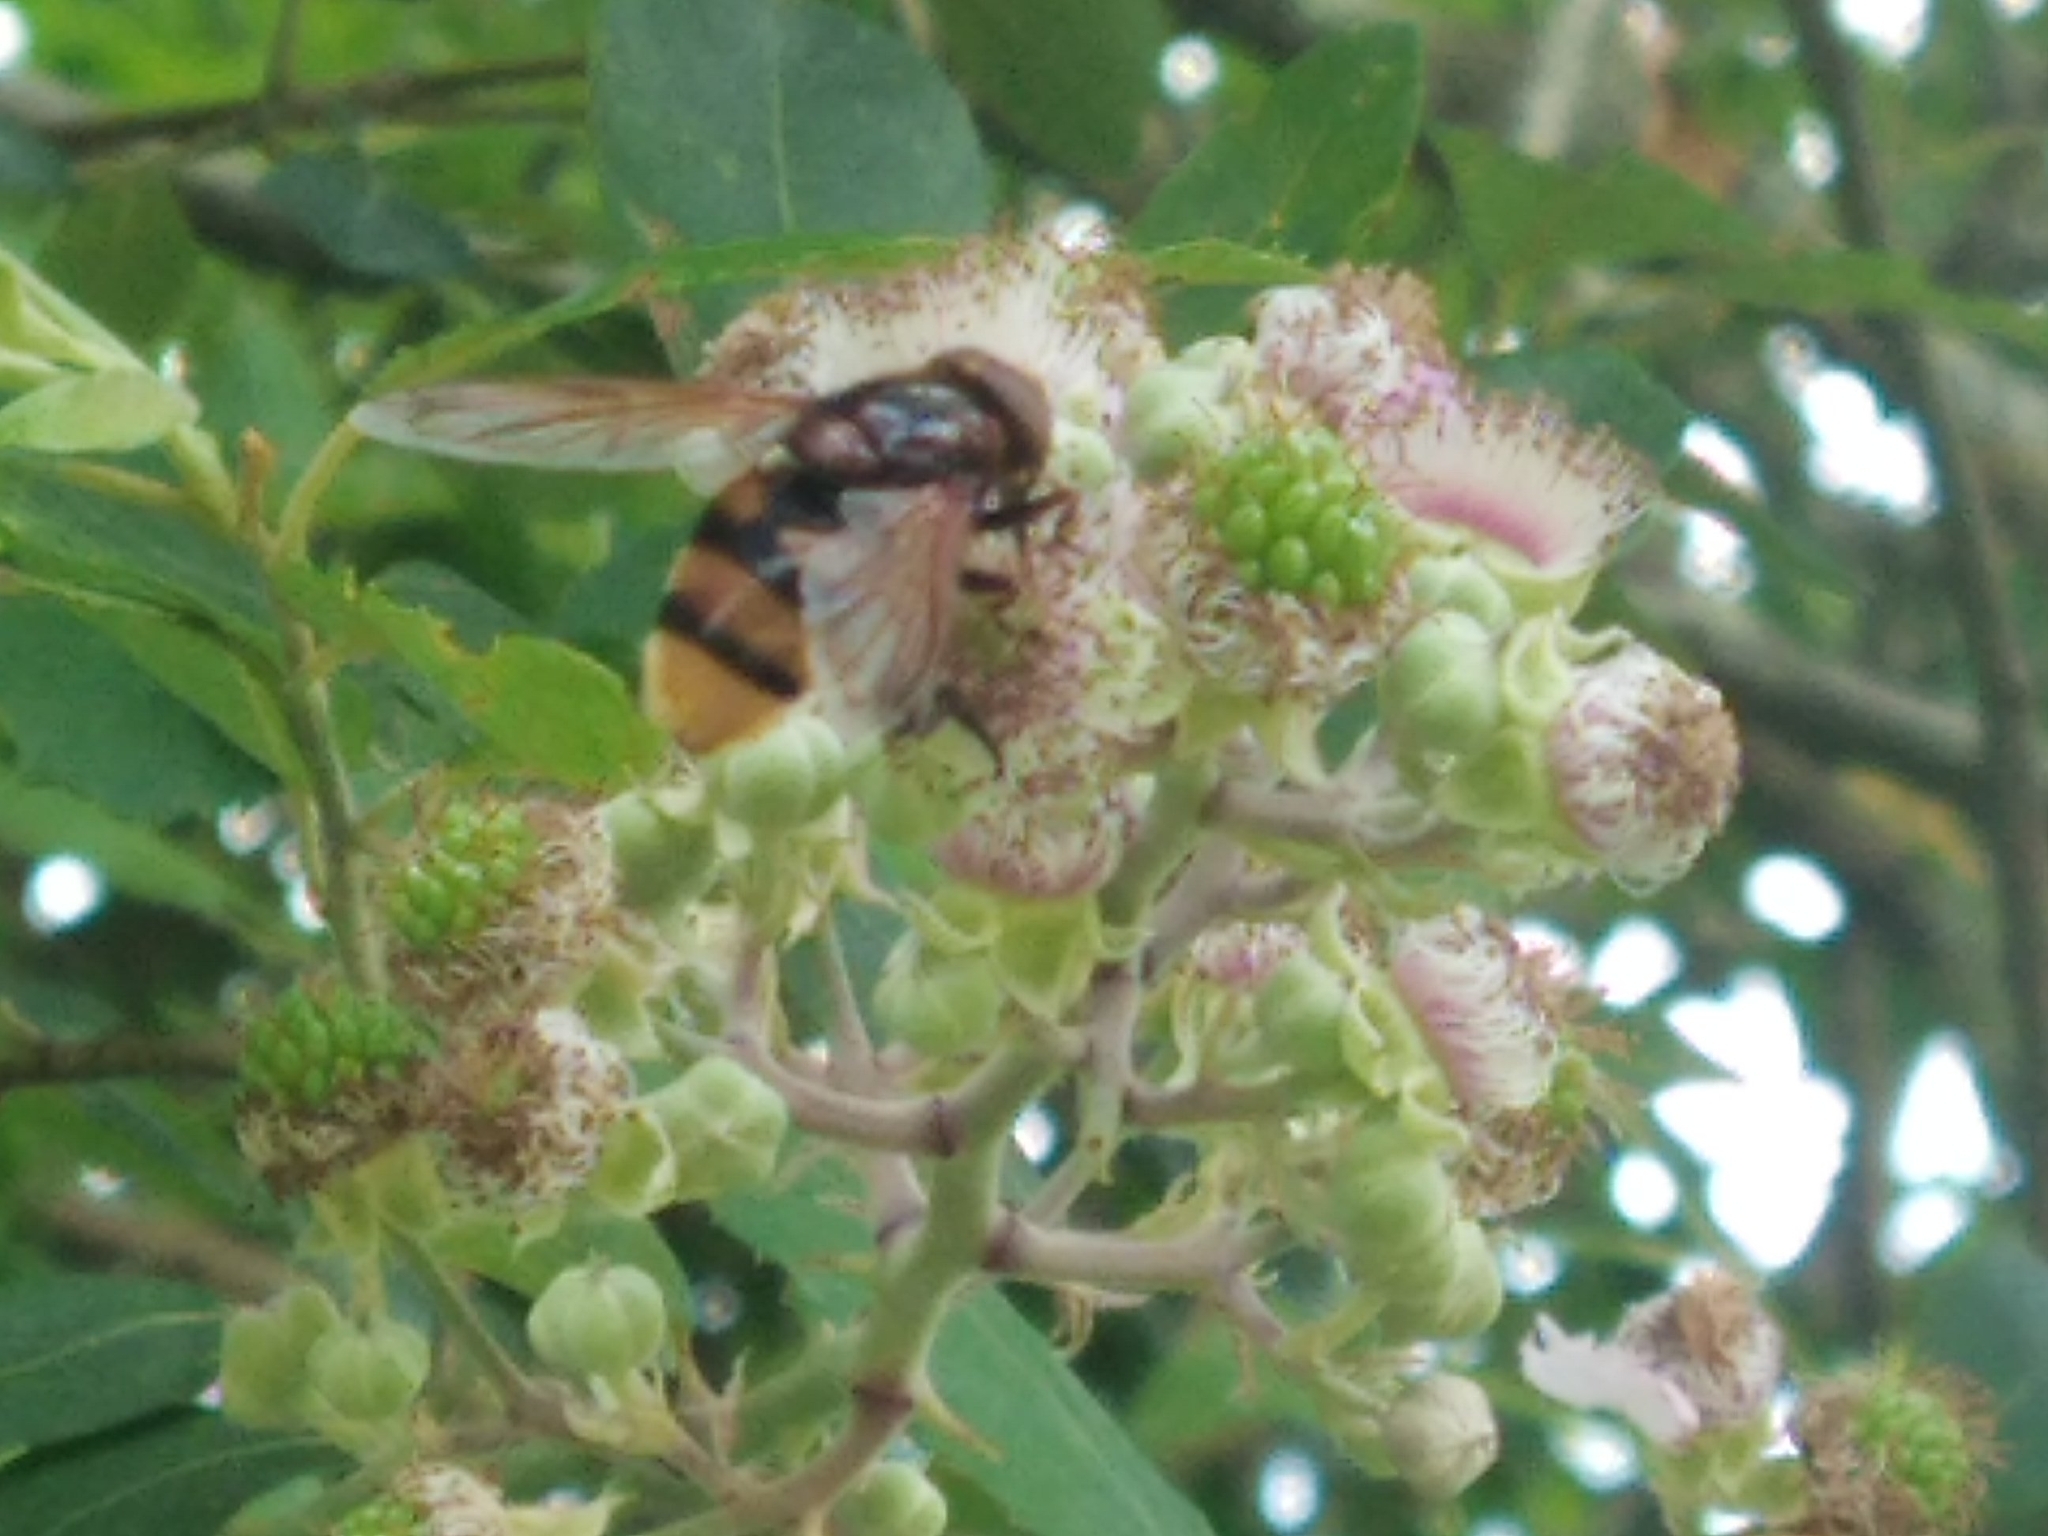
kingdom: Animalia
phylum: Arthropoda
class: Insecta
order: Diptera
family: Syrphidae
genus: Volucella
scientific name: Volucella zonaria
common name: Hornet hoverfly
